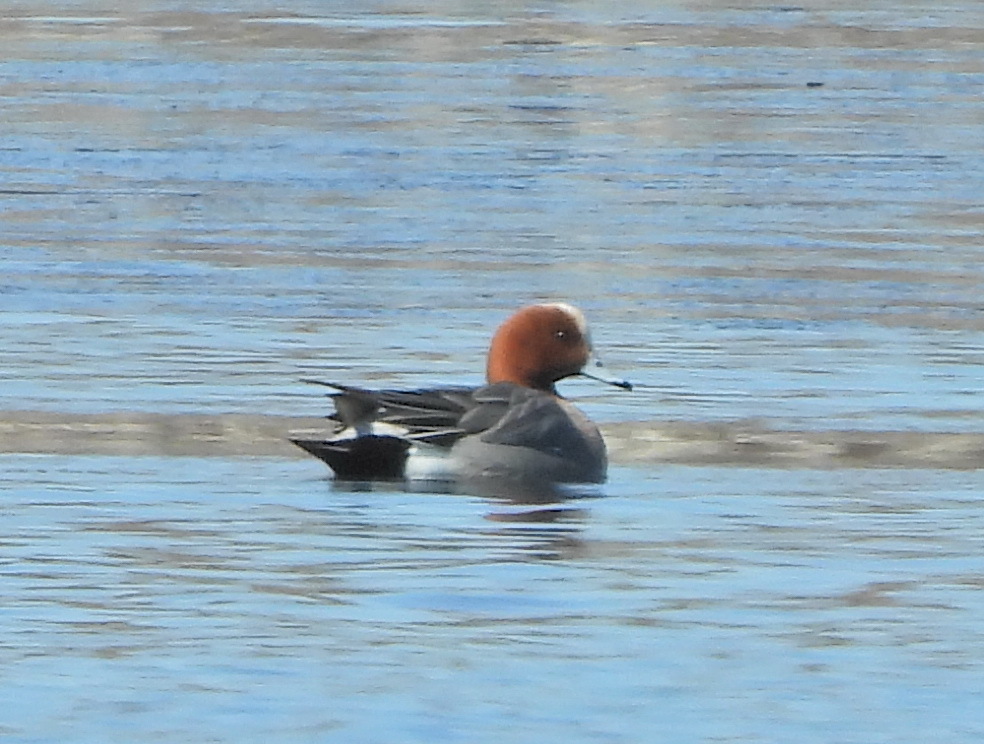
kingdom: Animalia
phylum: Chordata
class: Aves
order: Anseriformes
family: Anatidae
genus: Mareca
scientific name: Mareca penelope
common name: Eurasian wigeon
